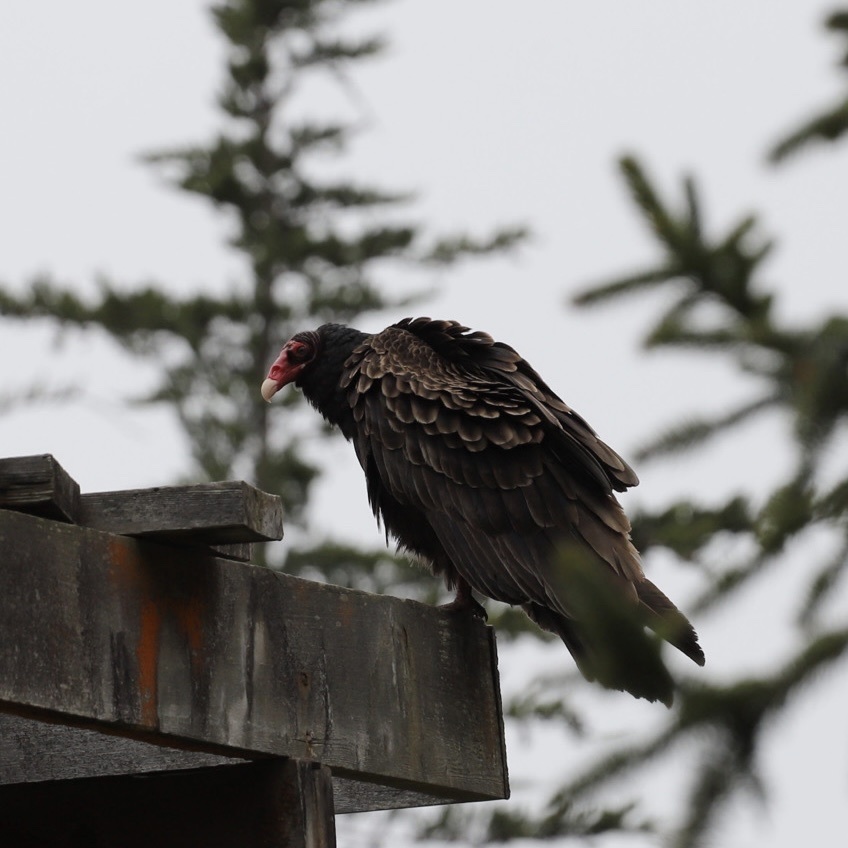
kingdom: Animalia
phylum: Chordata
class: Aves
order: Accipitriformes
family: Cathartidae
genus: Cathartes
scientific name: Cathartes aura
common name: Turkey vulture
